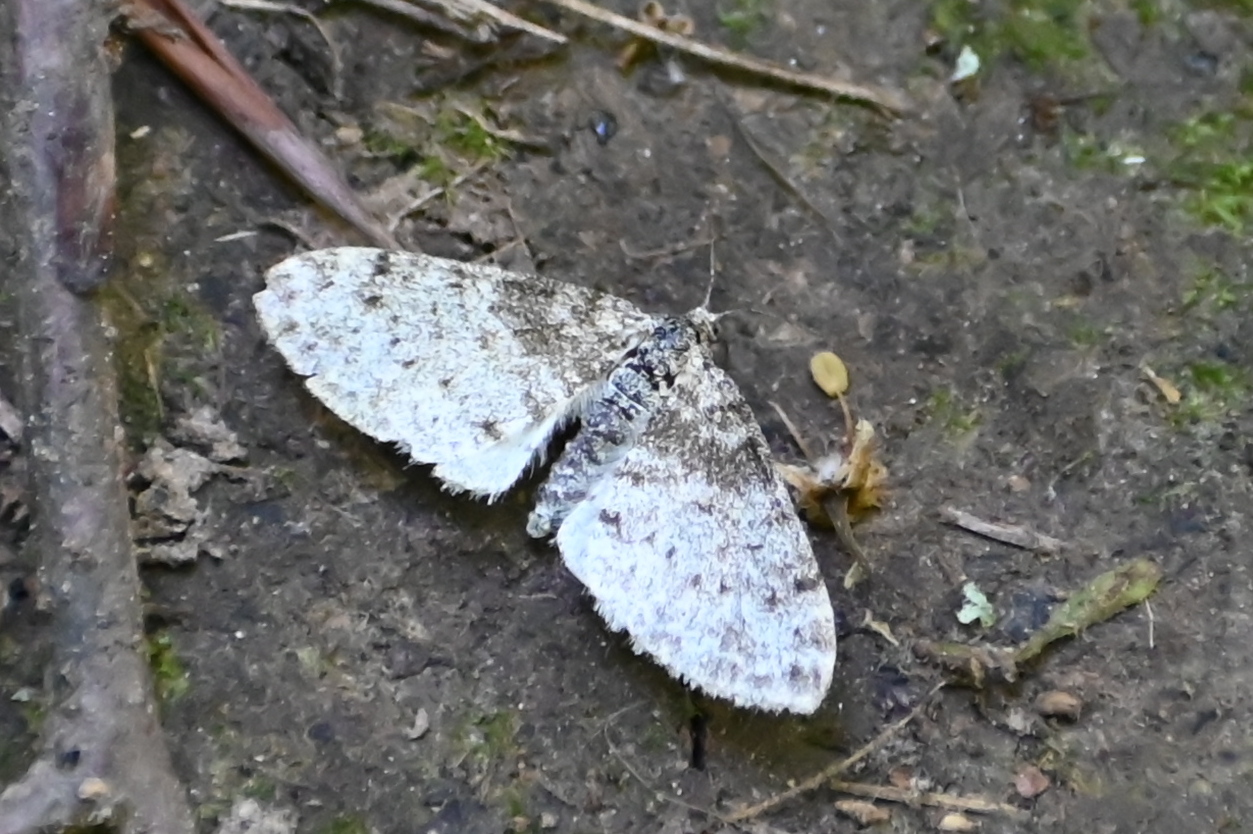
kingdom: Animalia
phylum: Arthropoda
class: Insecta
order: Lepidoptera
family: Geometridae
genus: Lobophora
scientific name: Lobophora halterata
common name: Seraphim
